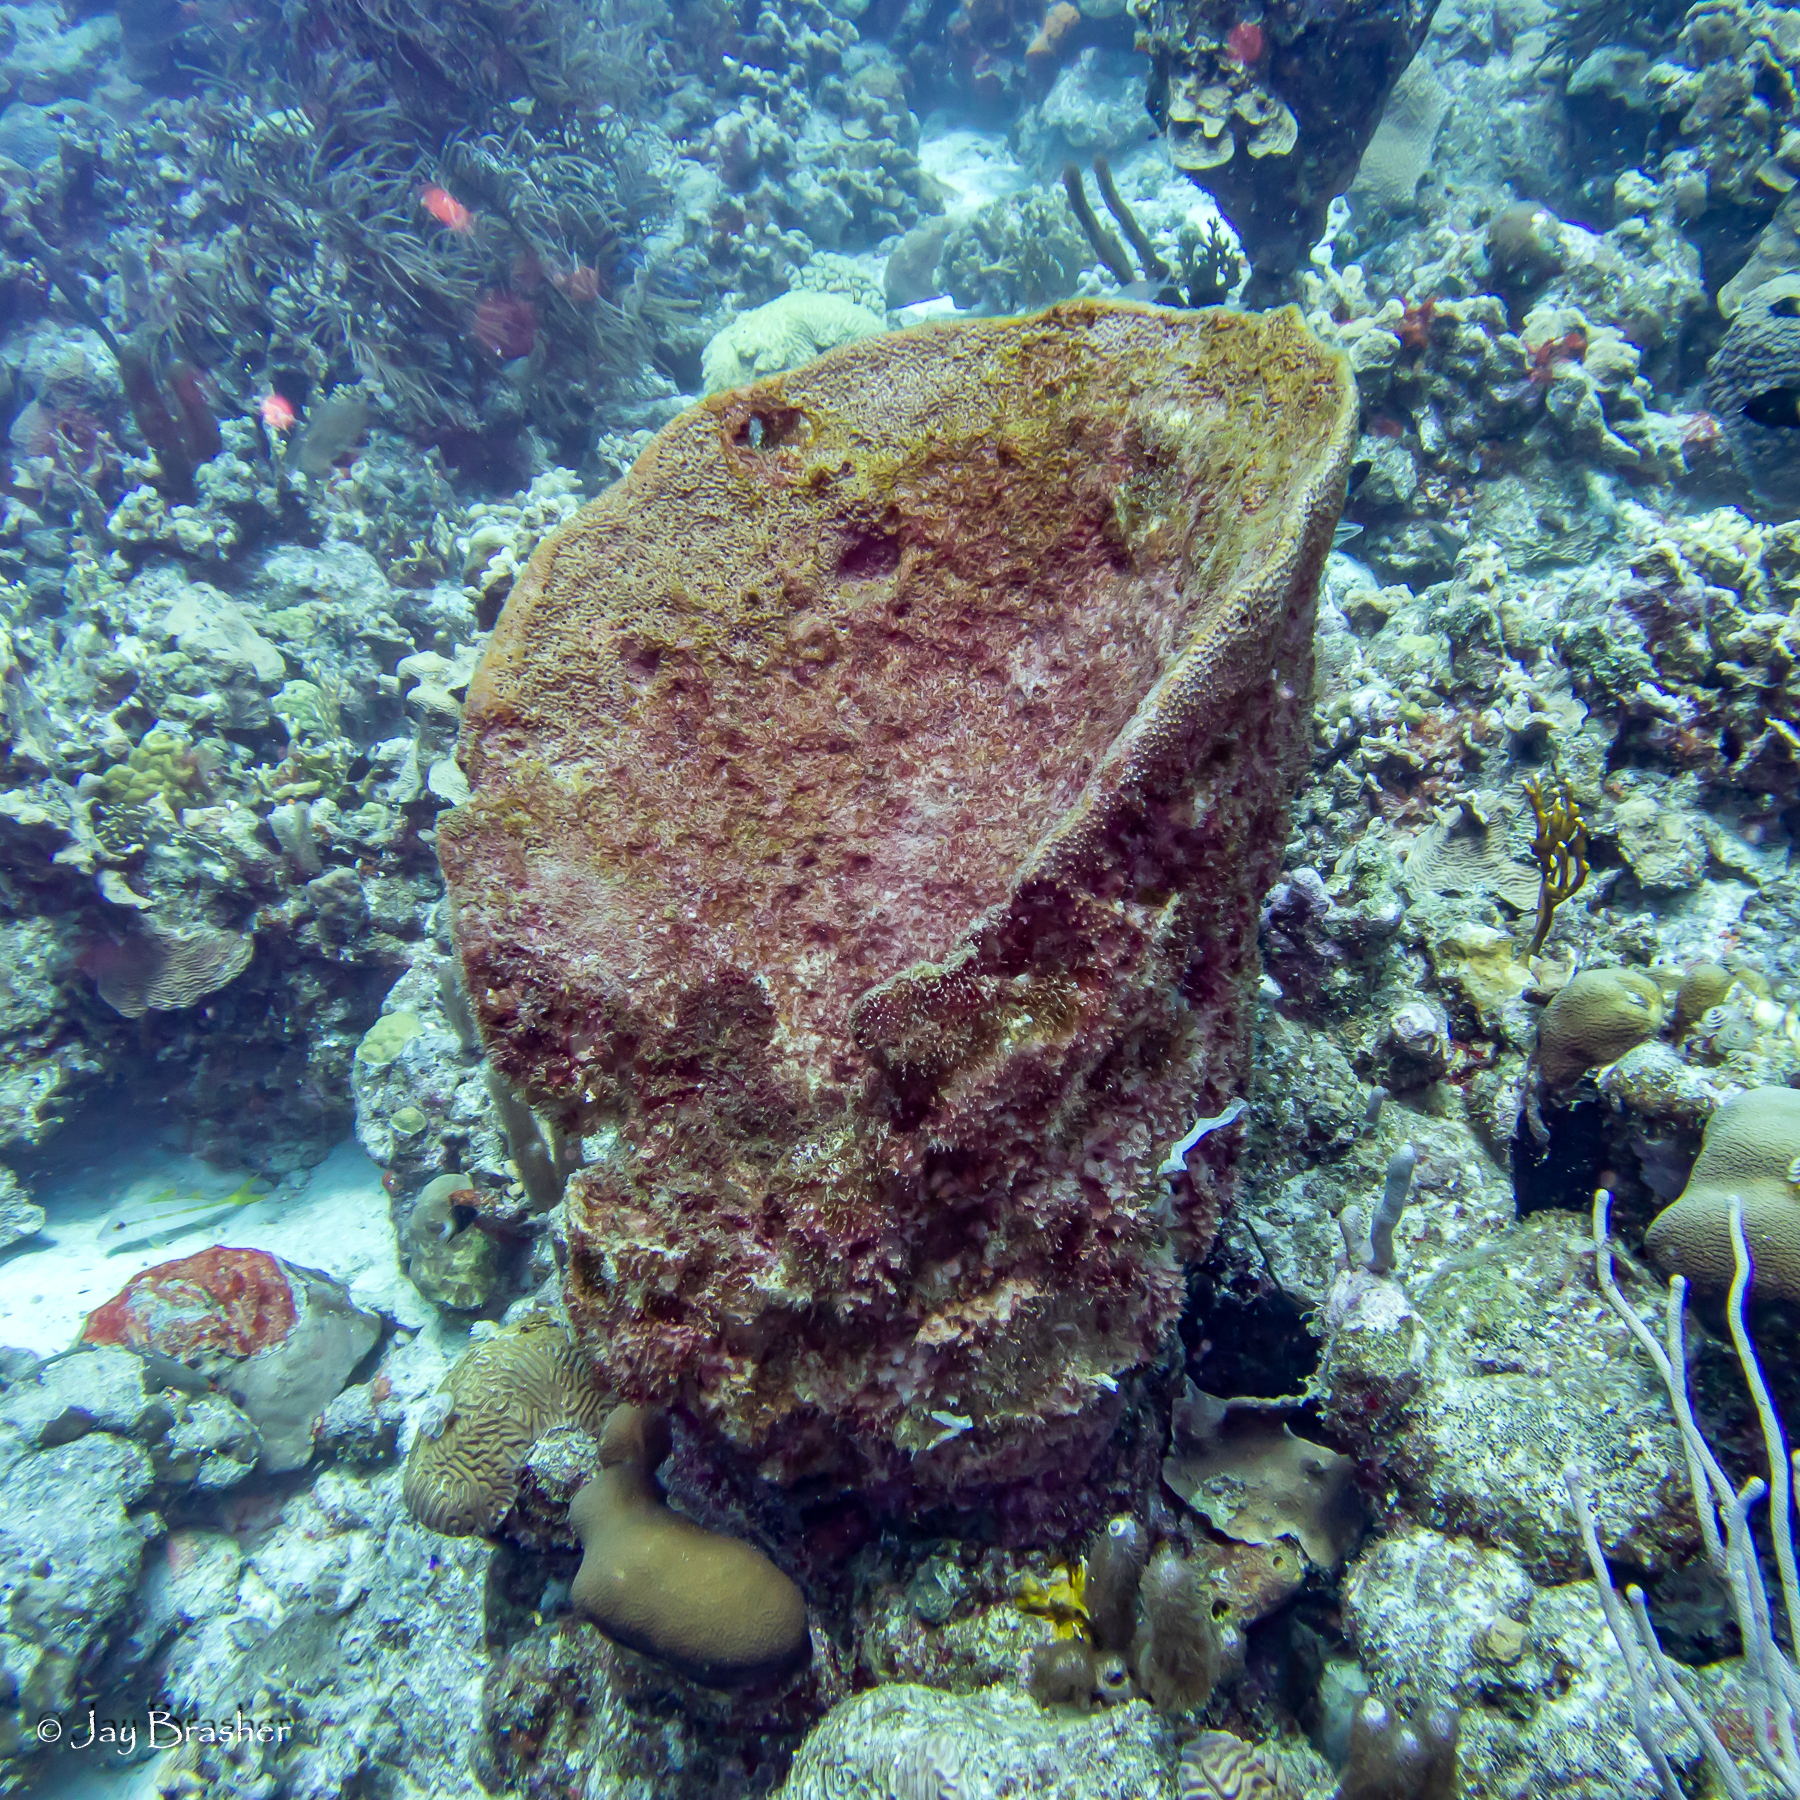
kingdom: Animalia
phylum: Porifera
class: Demospongiae
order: Dictyoceratida
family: Irciniidae
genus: Ircinia
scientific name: Ircinia campana
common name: Vase sponge
